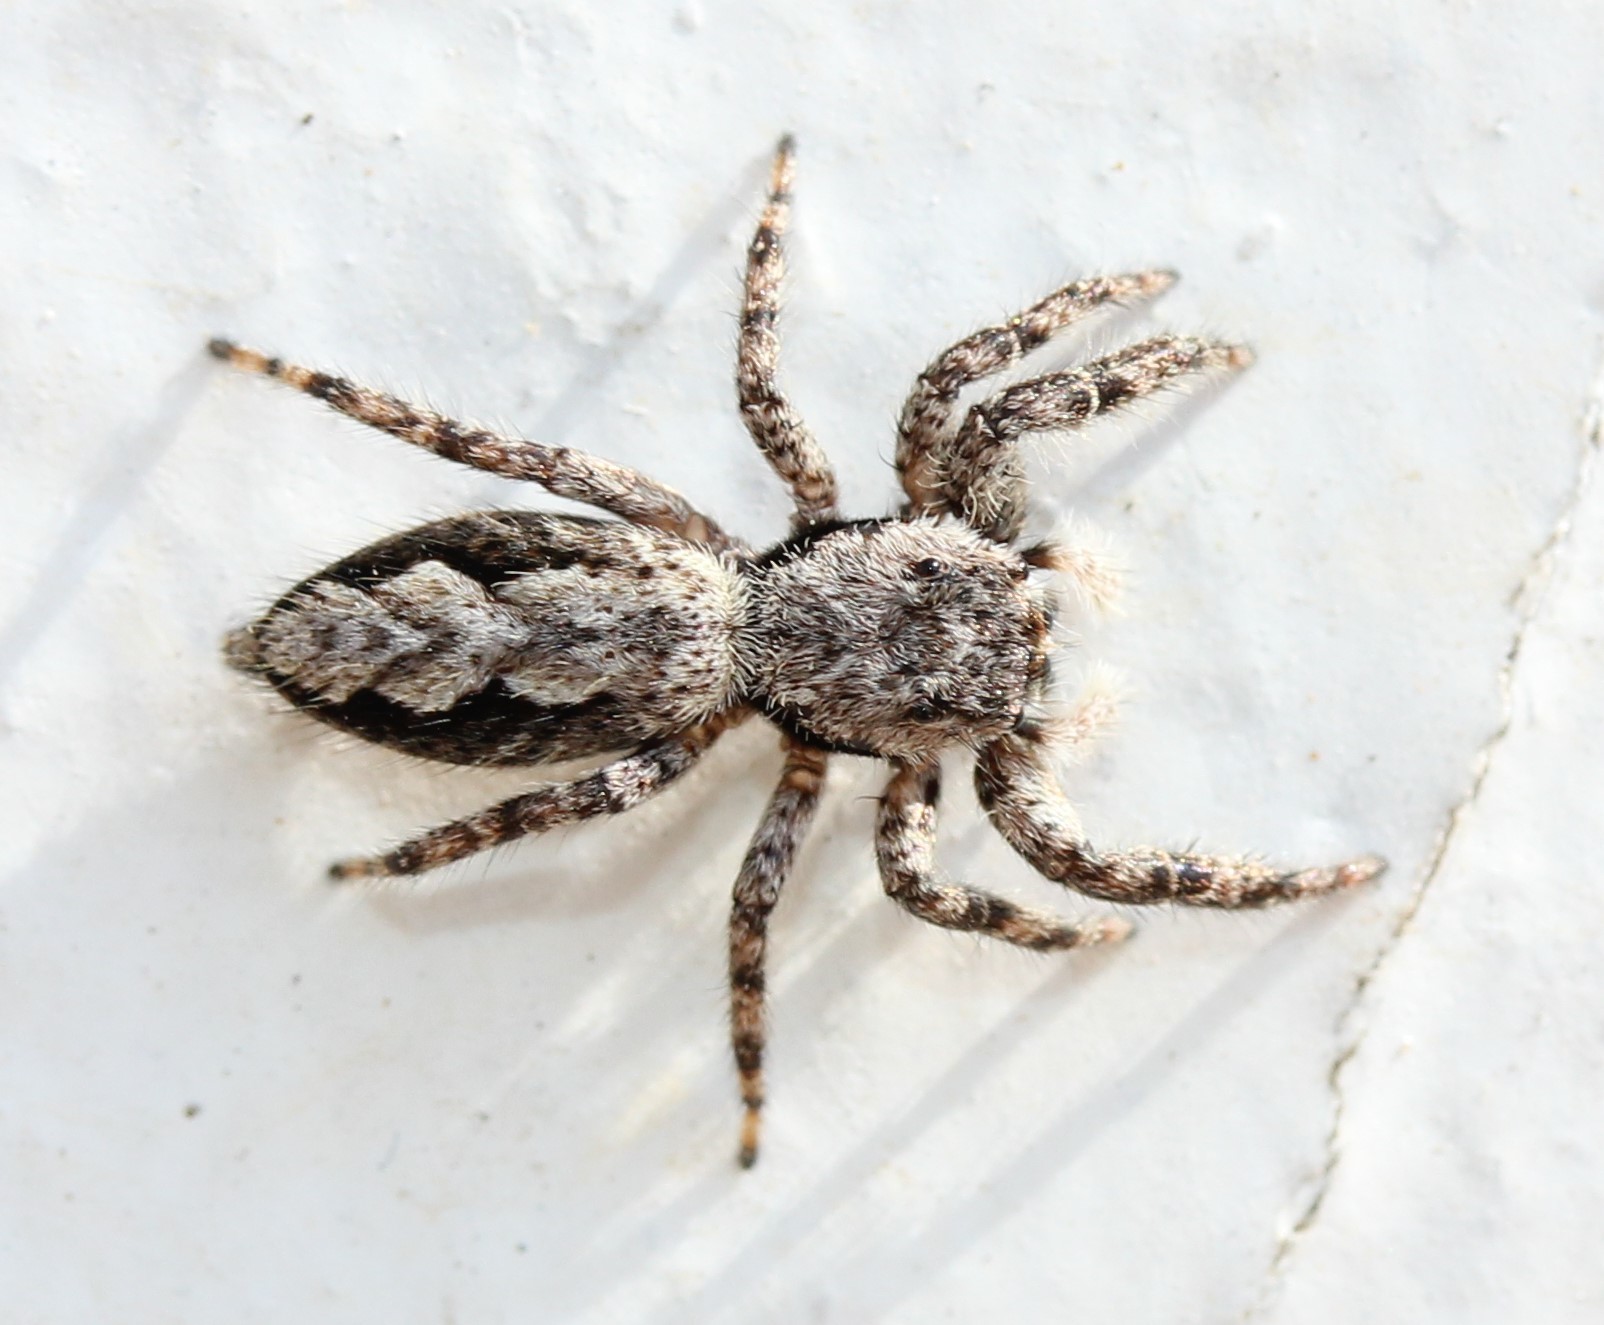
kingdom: Animalia
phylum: Arthropoda
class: Arachnida
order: Araneae
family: Salticidae
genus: Platycryptus
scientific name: Platycryptus undatus
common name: Tan jumping spider
